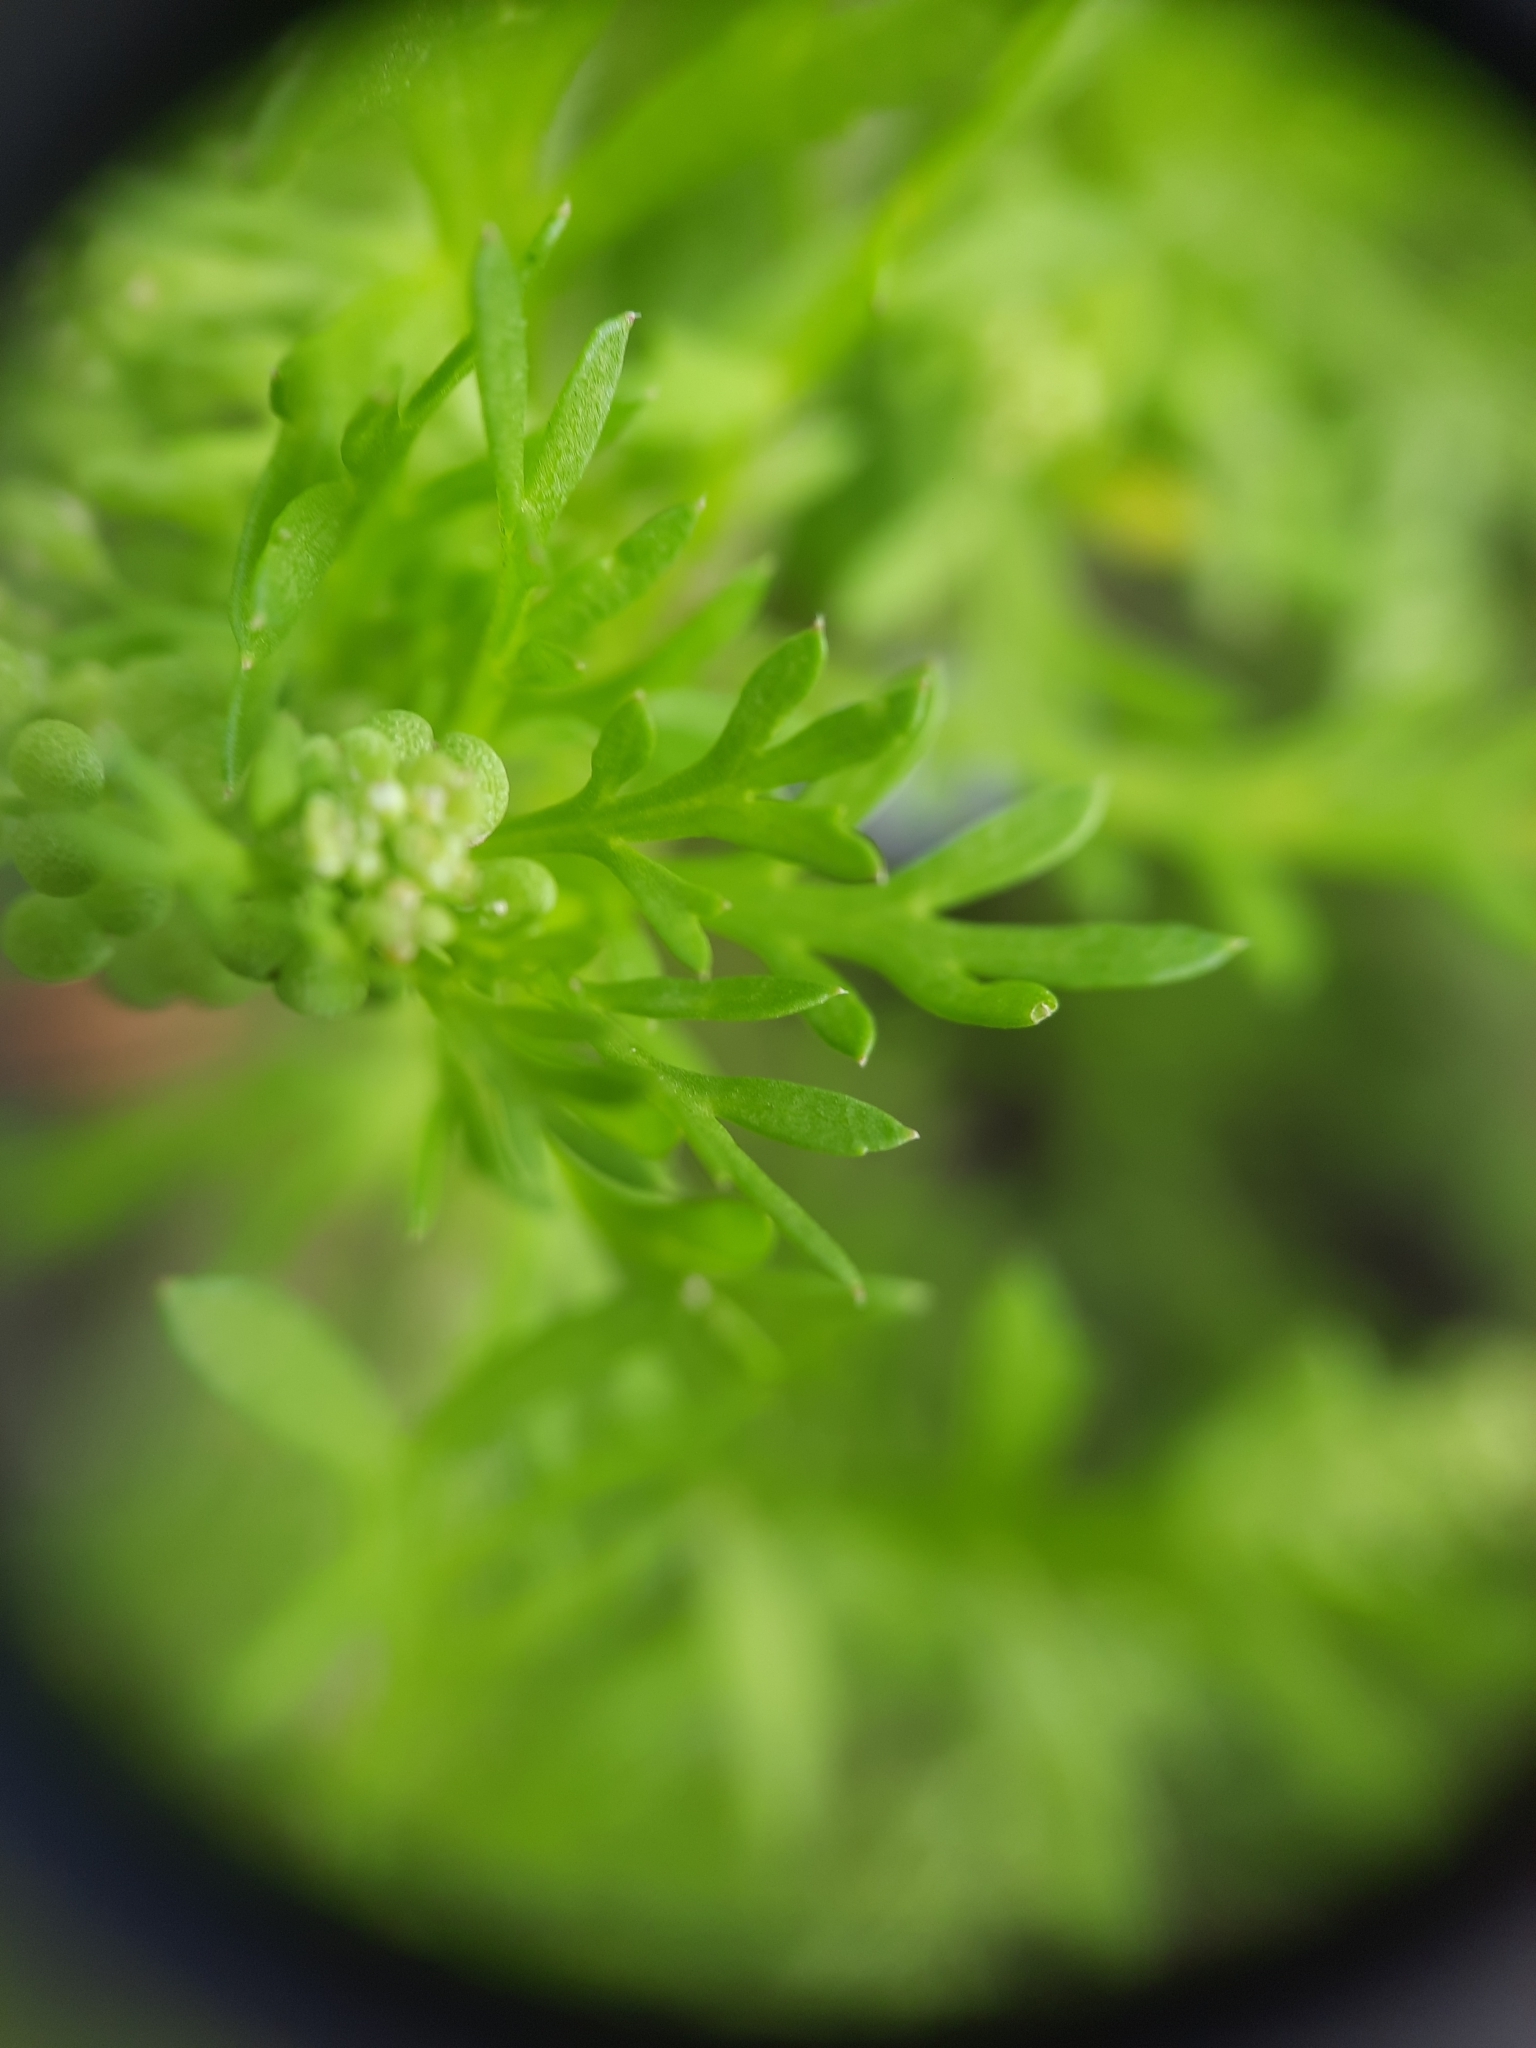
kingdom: Plantae
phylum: Tracheophyta
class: Magnoliopsida
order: Brassicales
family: Brassicaceae
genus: Lepidium
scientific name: Lepidium didymum
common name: Lesser swinecress
